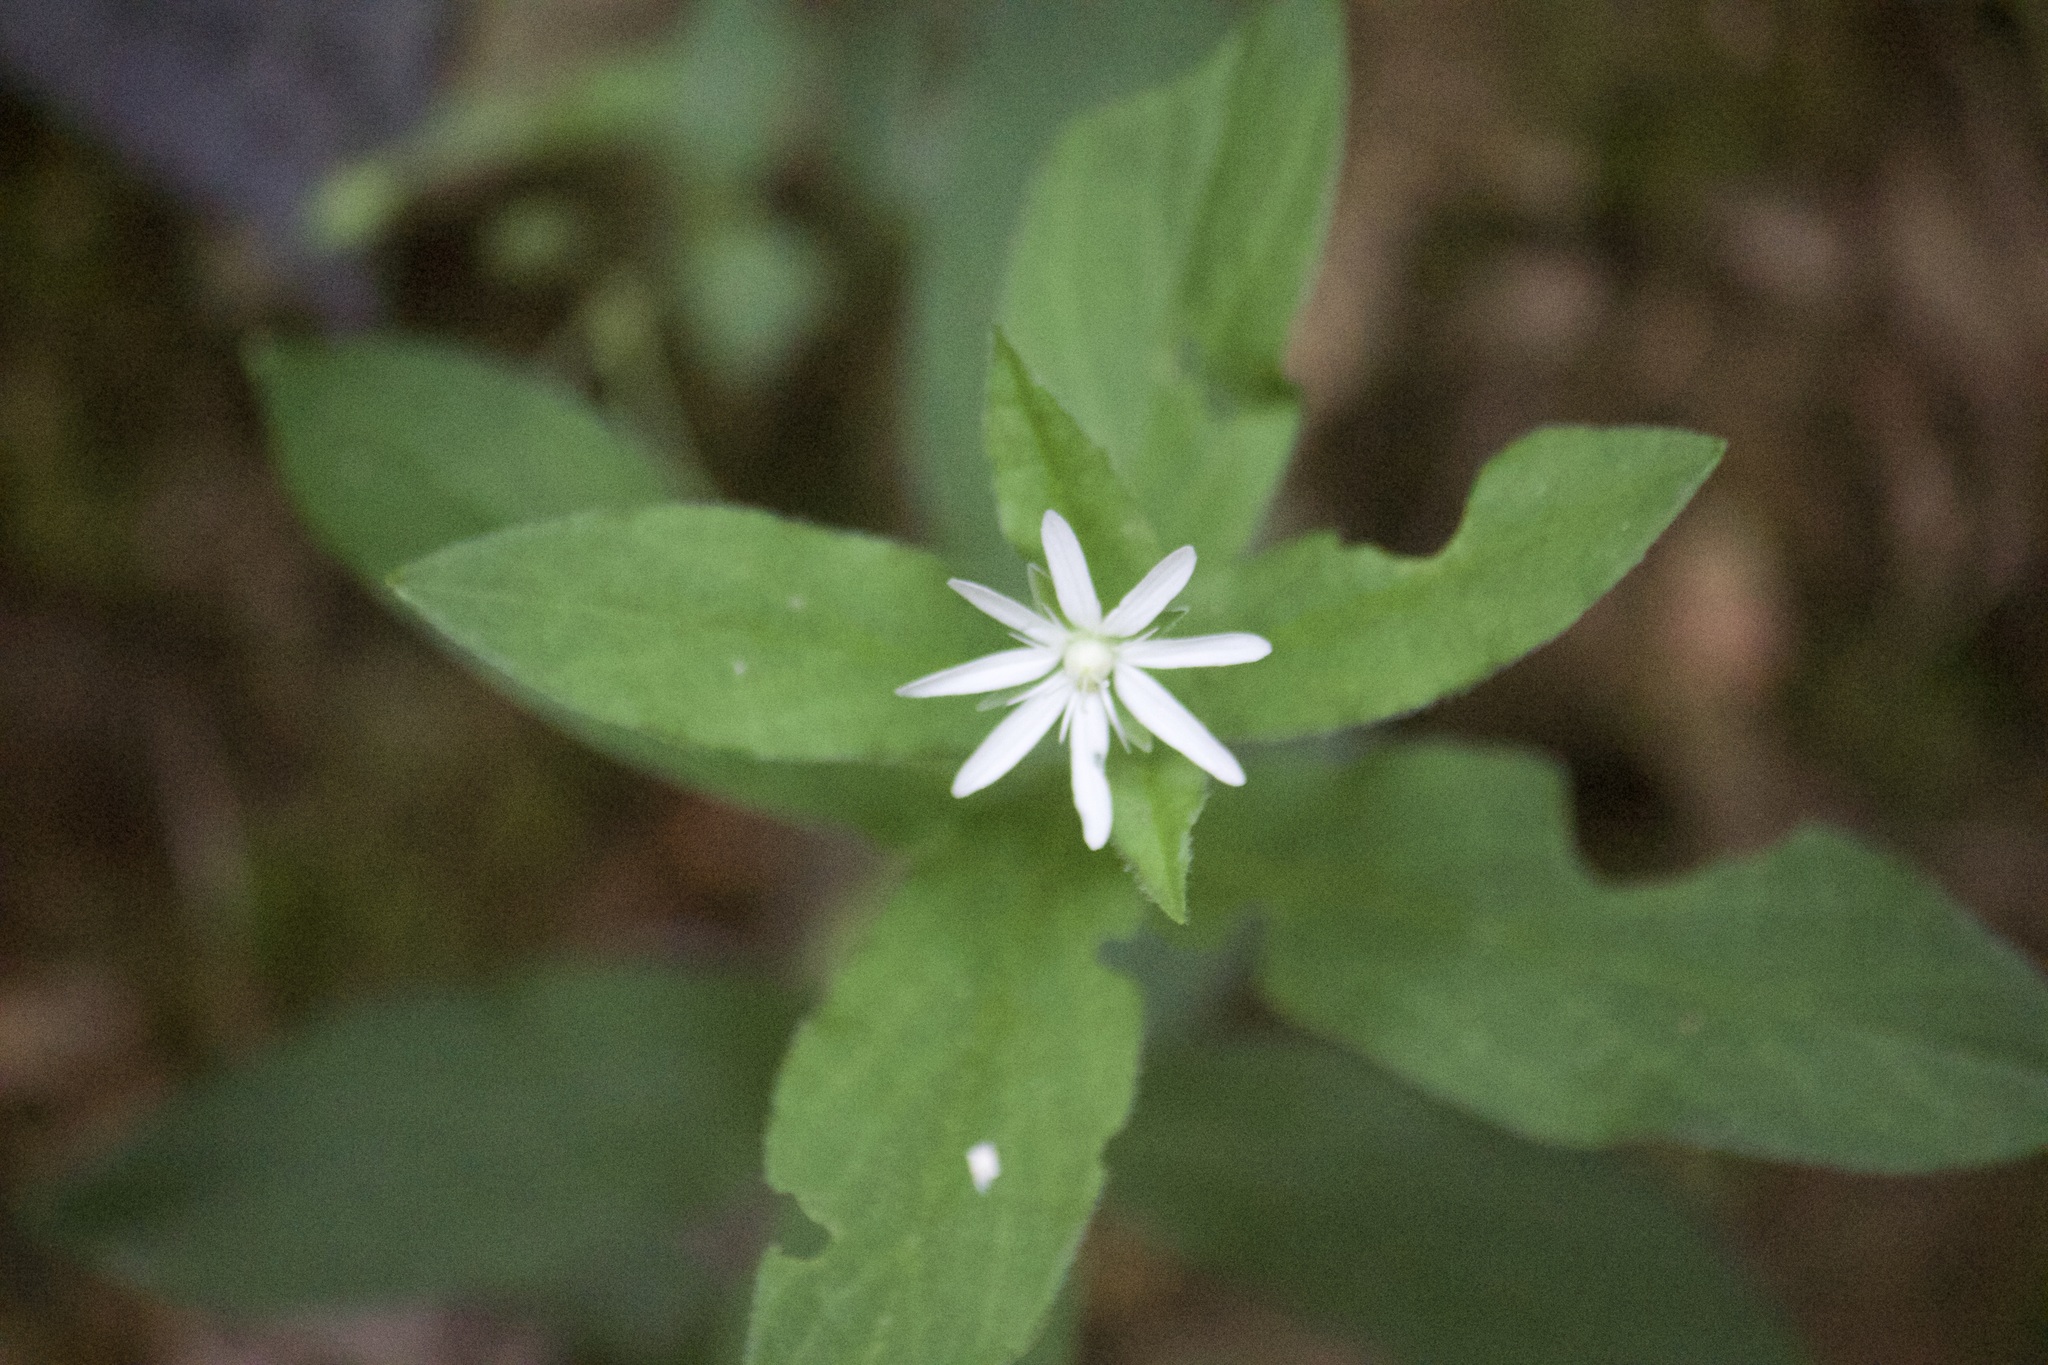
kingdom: Plantae
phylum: Tracheophyta
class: Magnoliopsida
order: Caryophyllales
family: Caryophyllaceae
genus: Stellaria
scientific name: Stellaria pubera
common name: Star chickweed
